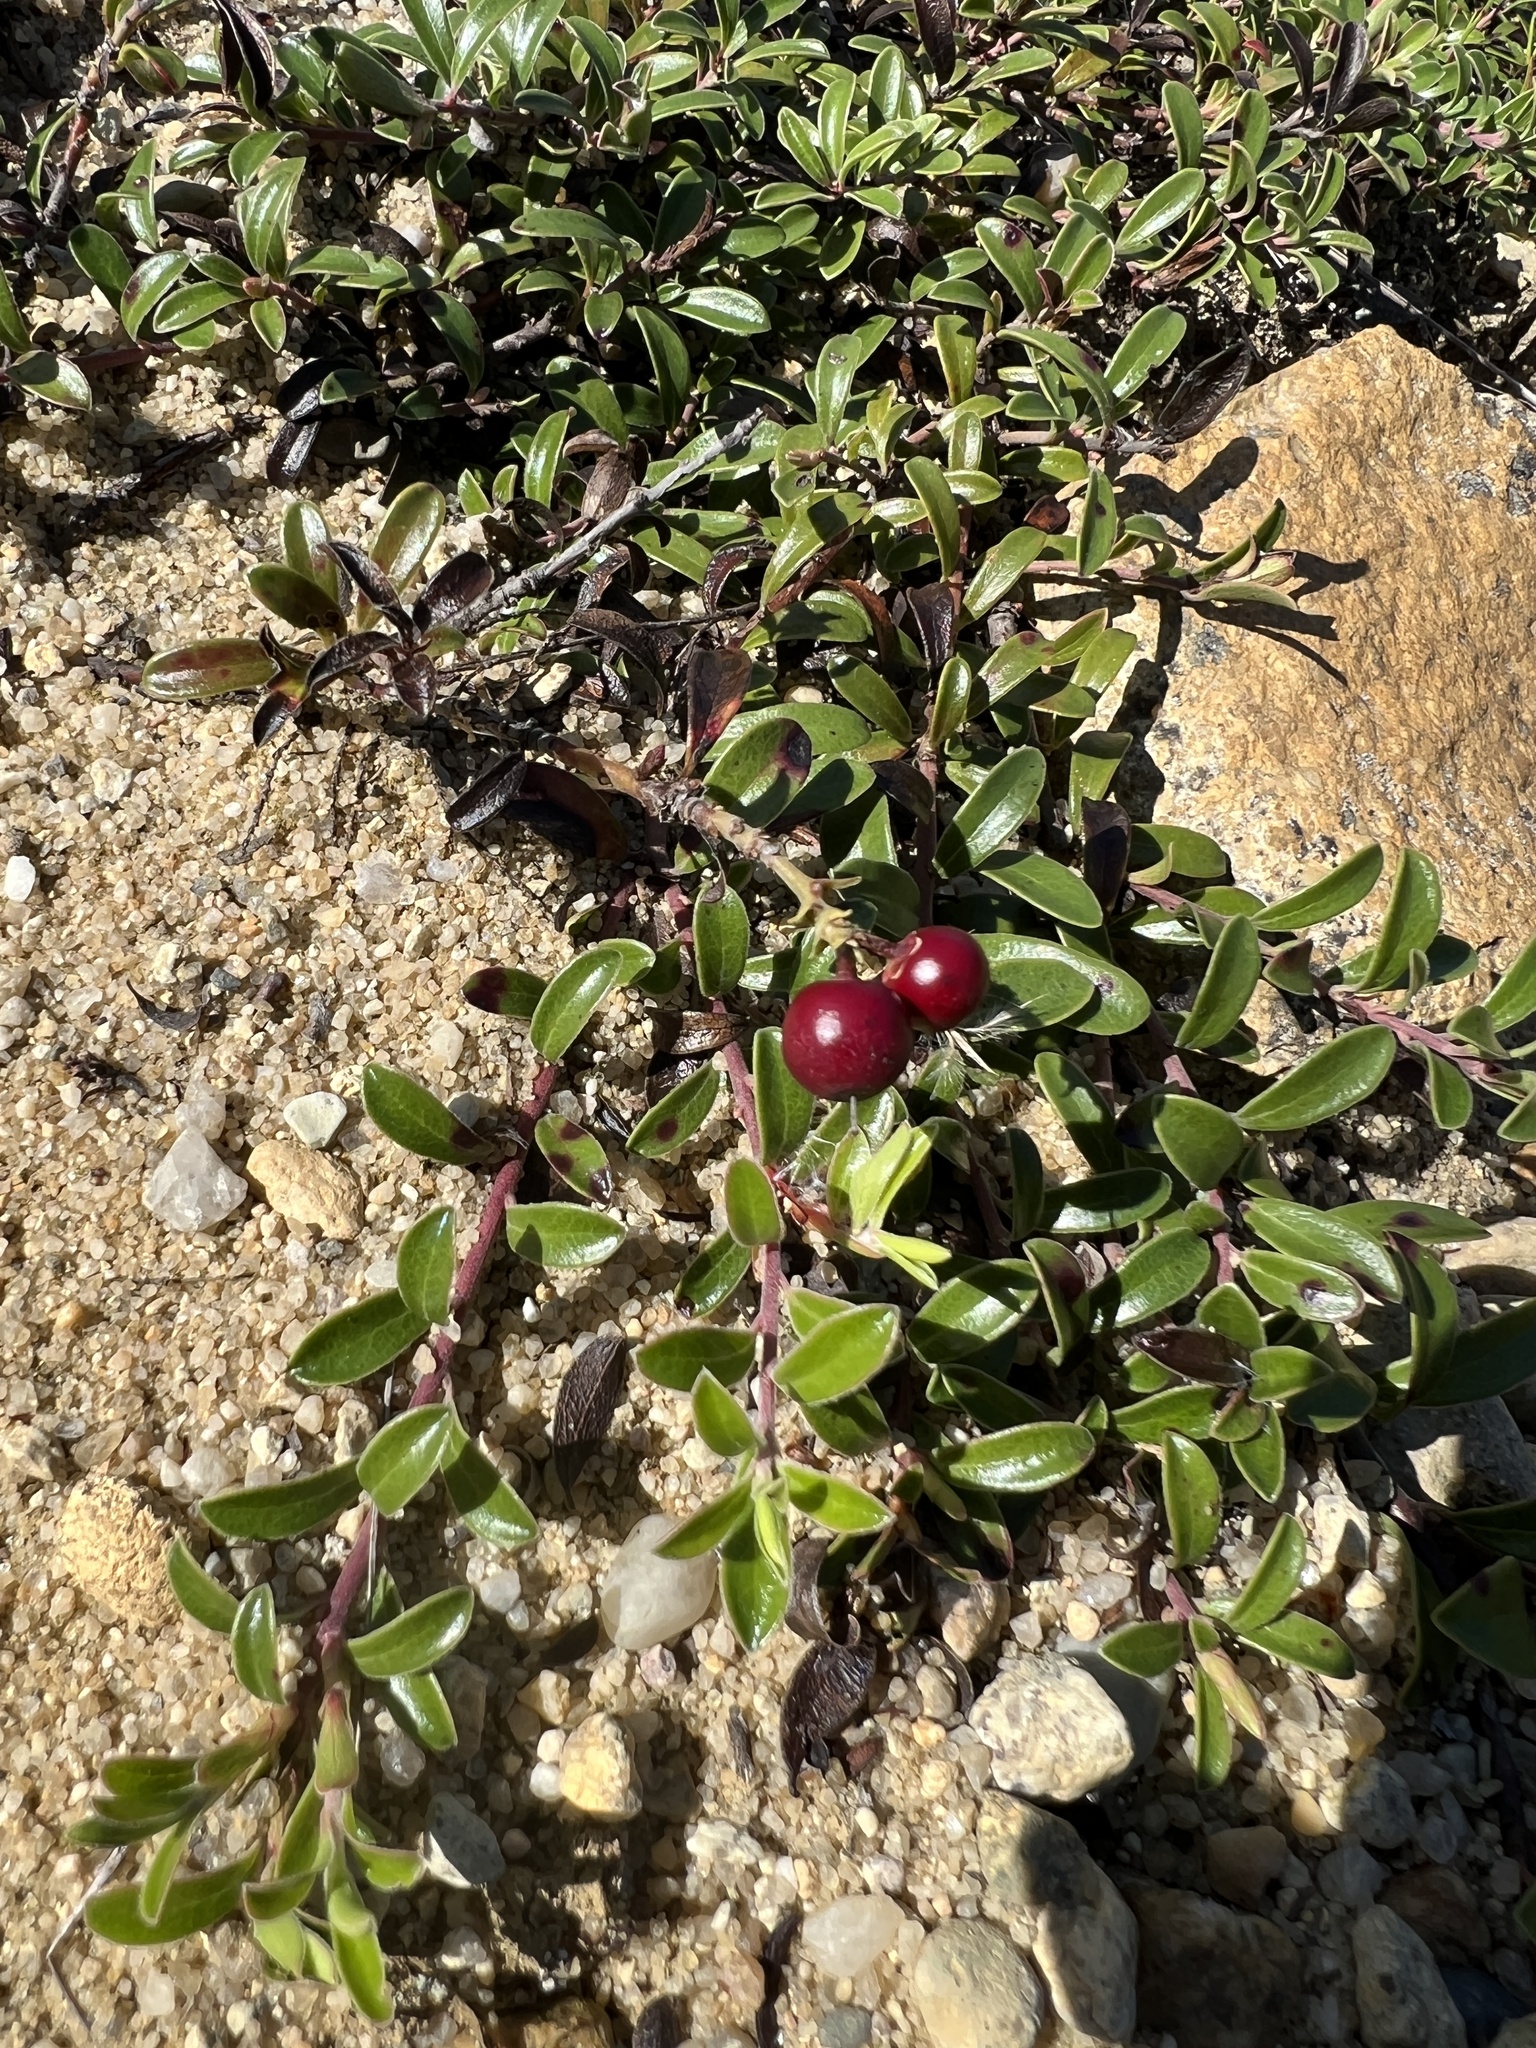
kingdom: Plantae
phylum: Tracheophyta
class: Magnoliopsida
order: Ericales
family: Ericaceae
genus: Arctostaphylos
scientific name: Arctostaphylos uva-ursi
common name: Bearberry
